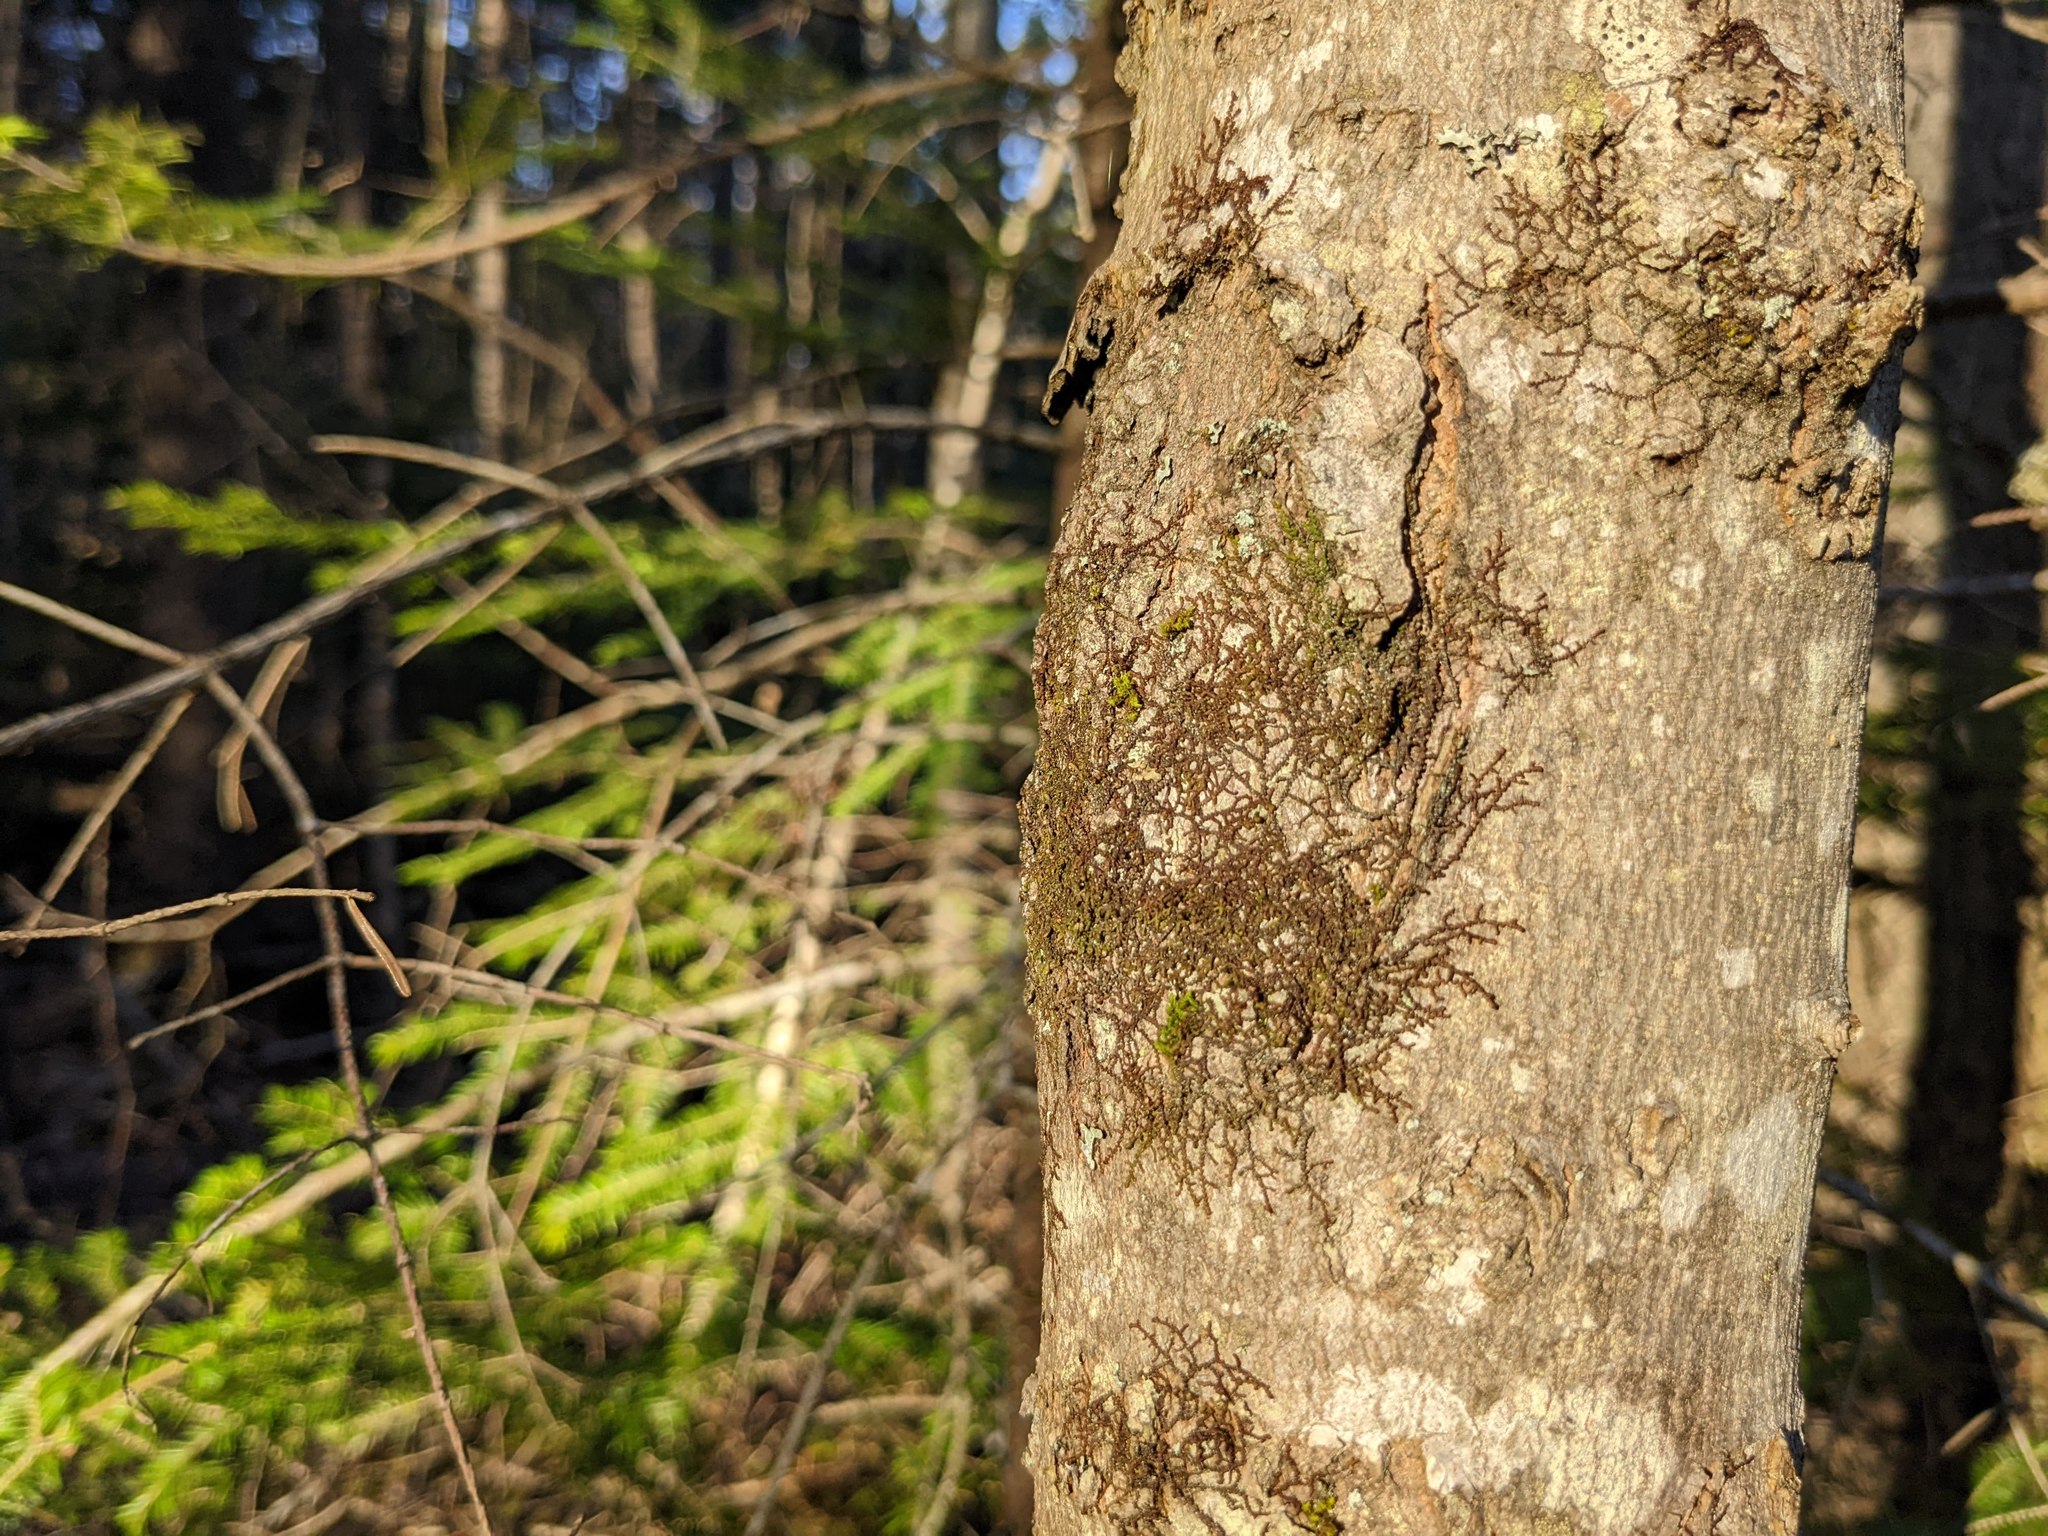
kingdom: Plantae
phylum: Marchantiophyta
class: Jungermanniopsida
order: Porellales
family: Frullaniaceae
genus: Frullania
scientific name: Frullania eboracensis
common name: New york scalewort
